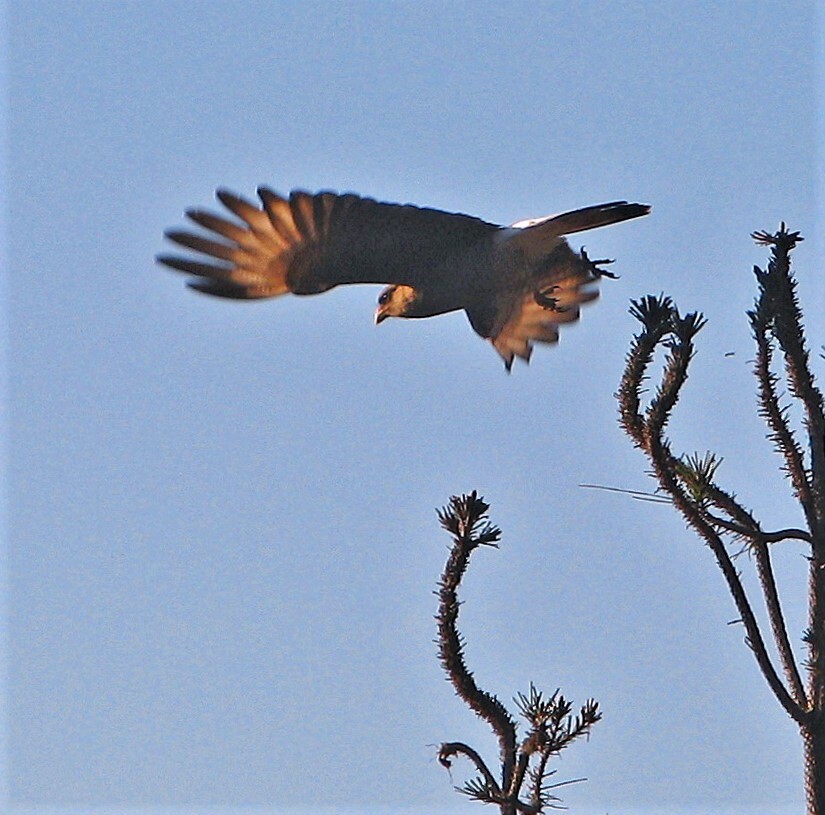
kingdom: Animalia
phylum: Chordata
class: Aves
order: Falconiformes
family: Falconidae
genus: Daptrius
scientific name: Daptrius
